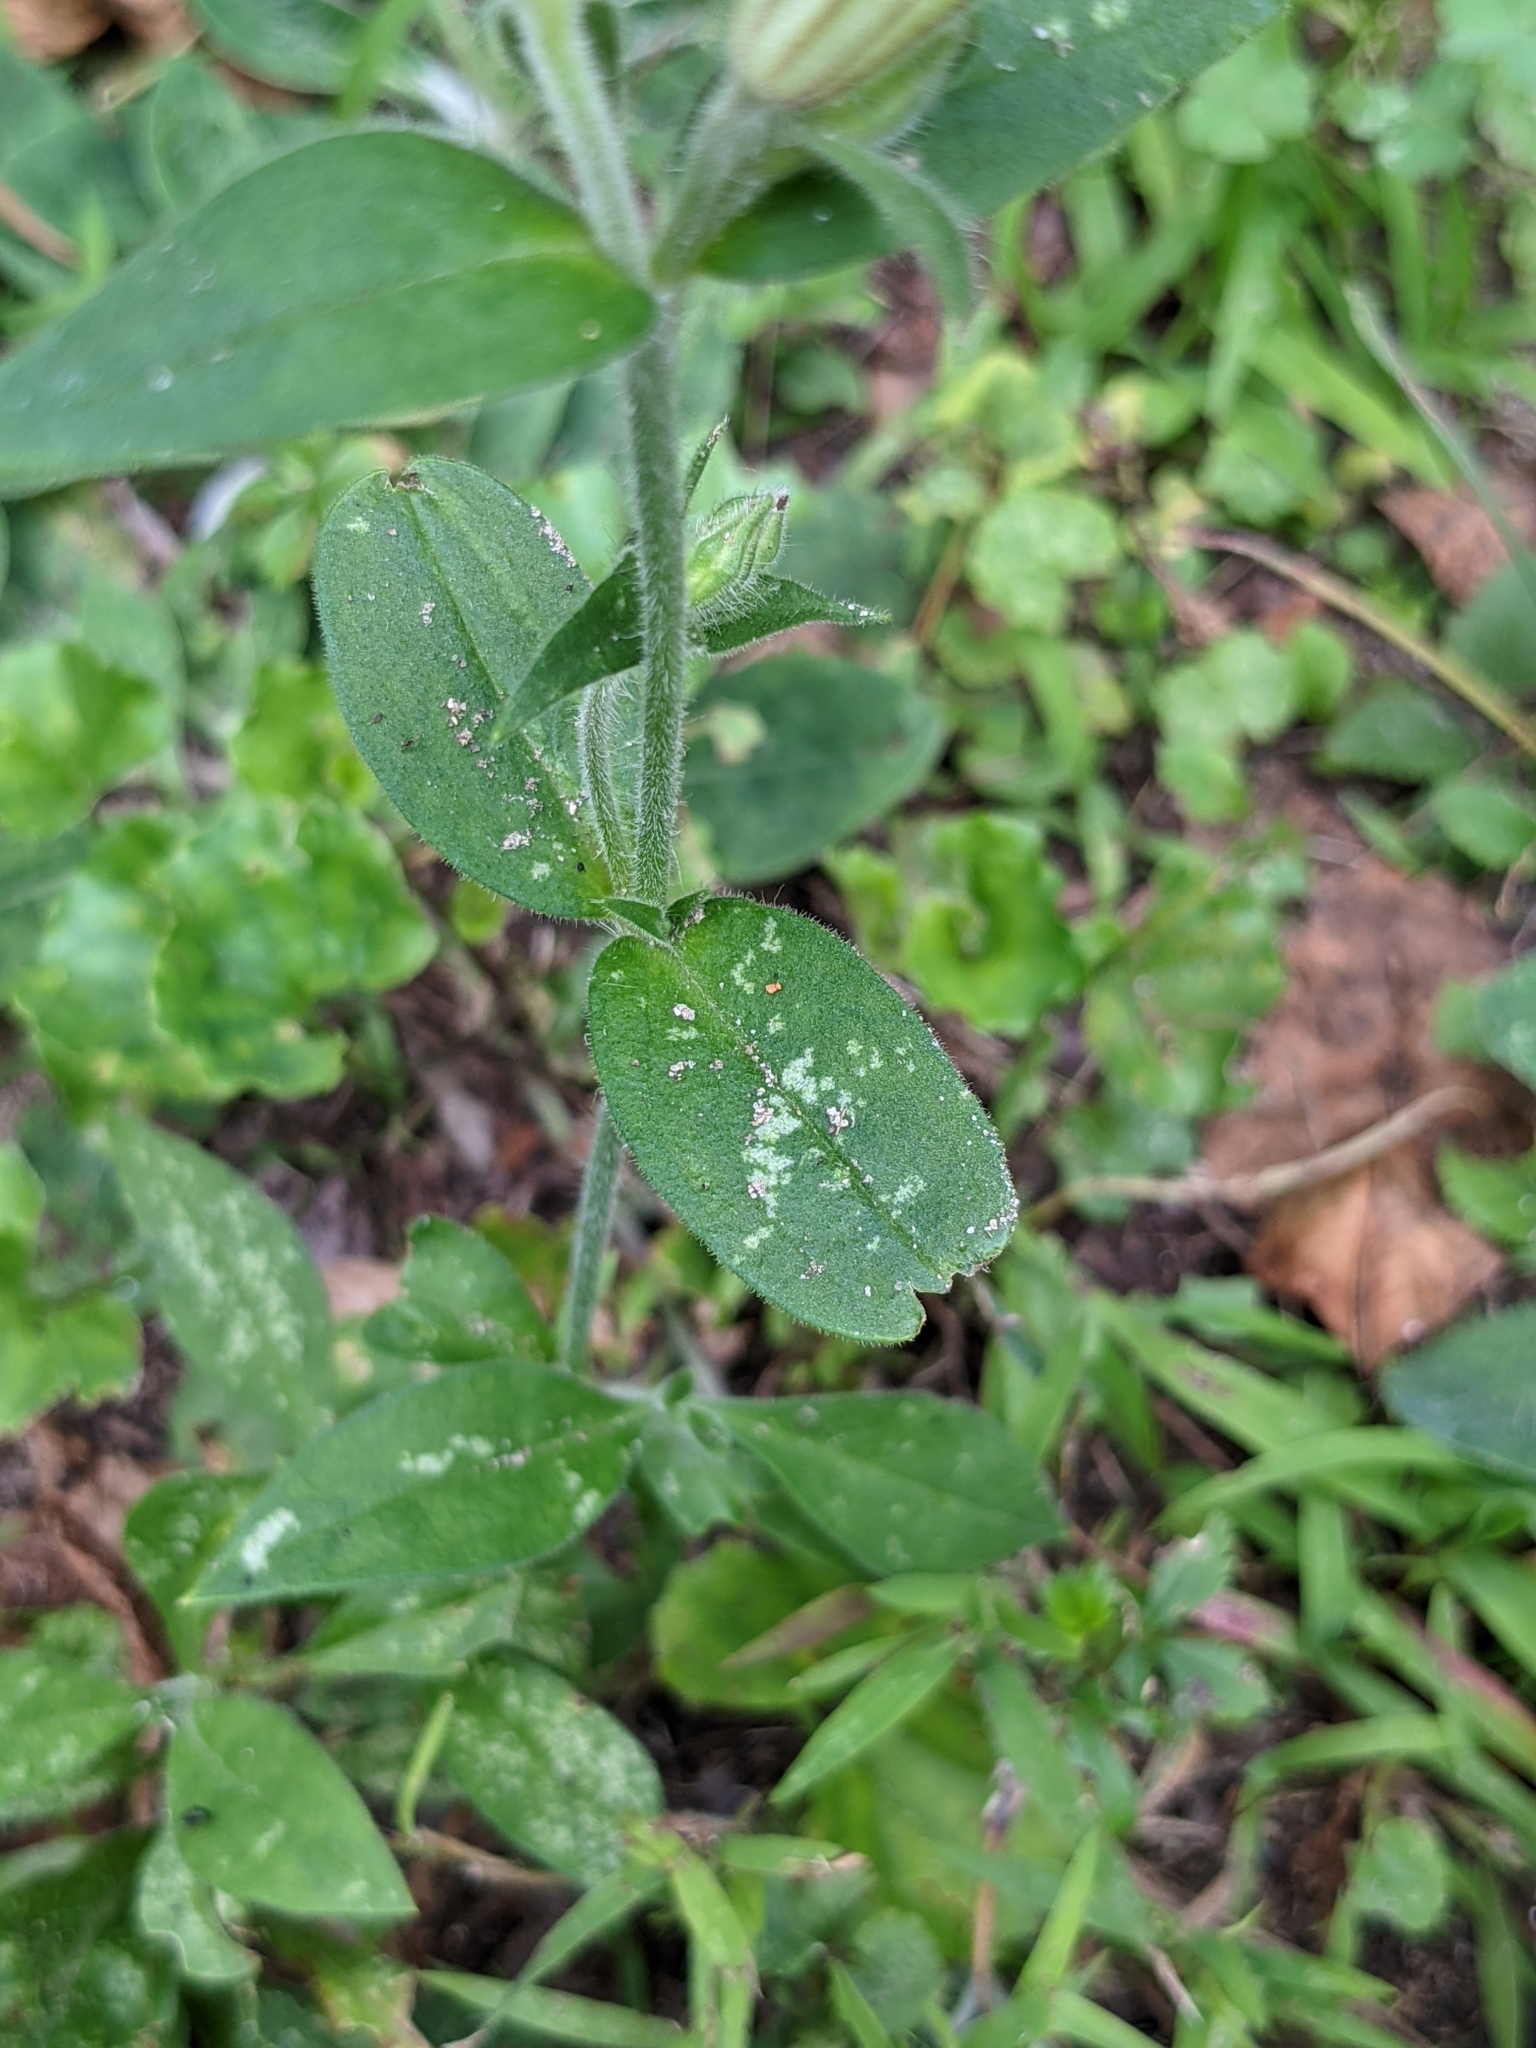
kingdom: Plantae
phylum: Tracheophyta
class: Magnoliopsida
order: Caryophyllales
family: Caryophyllaceae
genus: Silene
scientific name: Silene latifolia
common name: White campion
